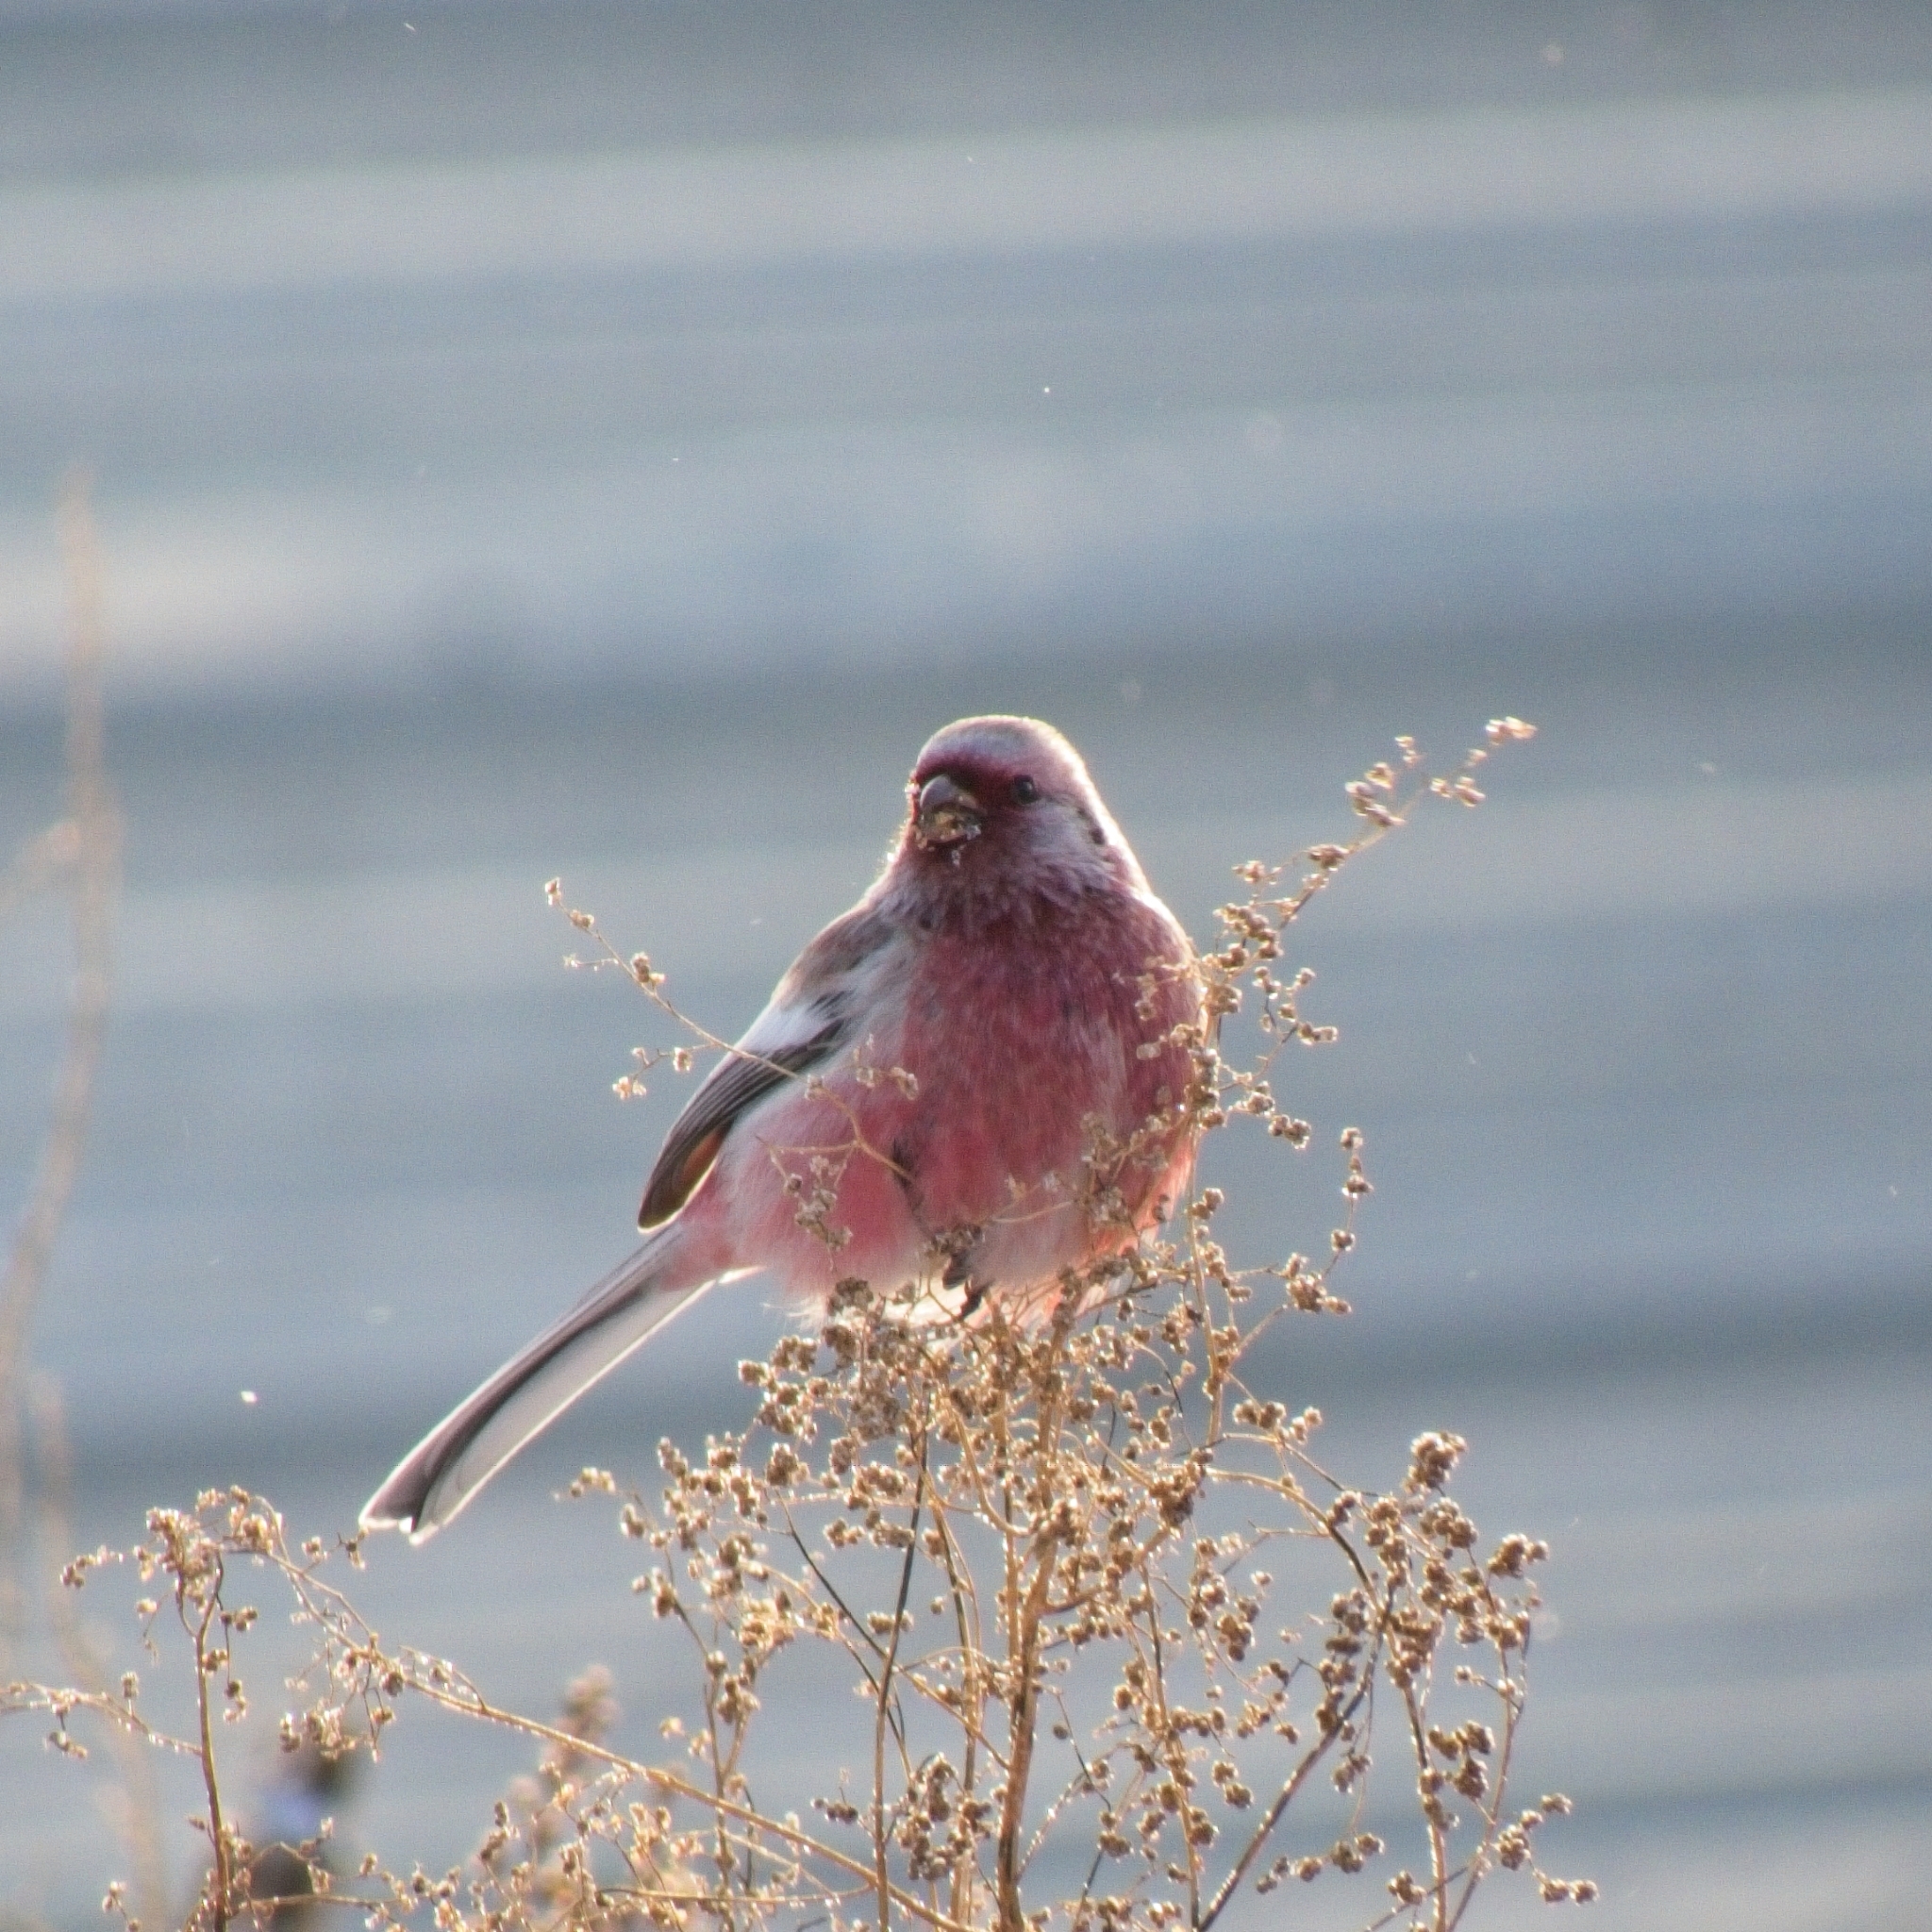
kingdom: Animalia
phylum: Chordata
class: Aves
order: Passeriformes
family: Fringillidae
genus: Carpodacus
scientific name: Carpodacus sibiricus
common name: Long-tailed rosefinch
